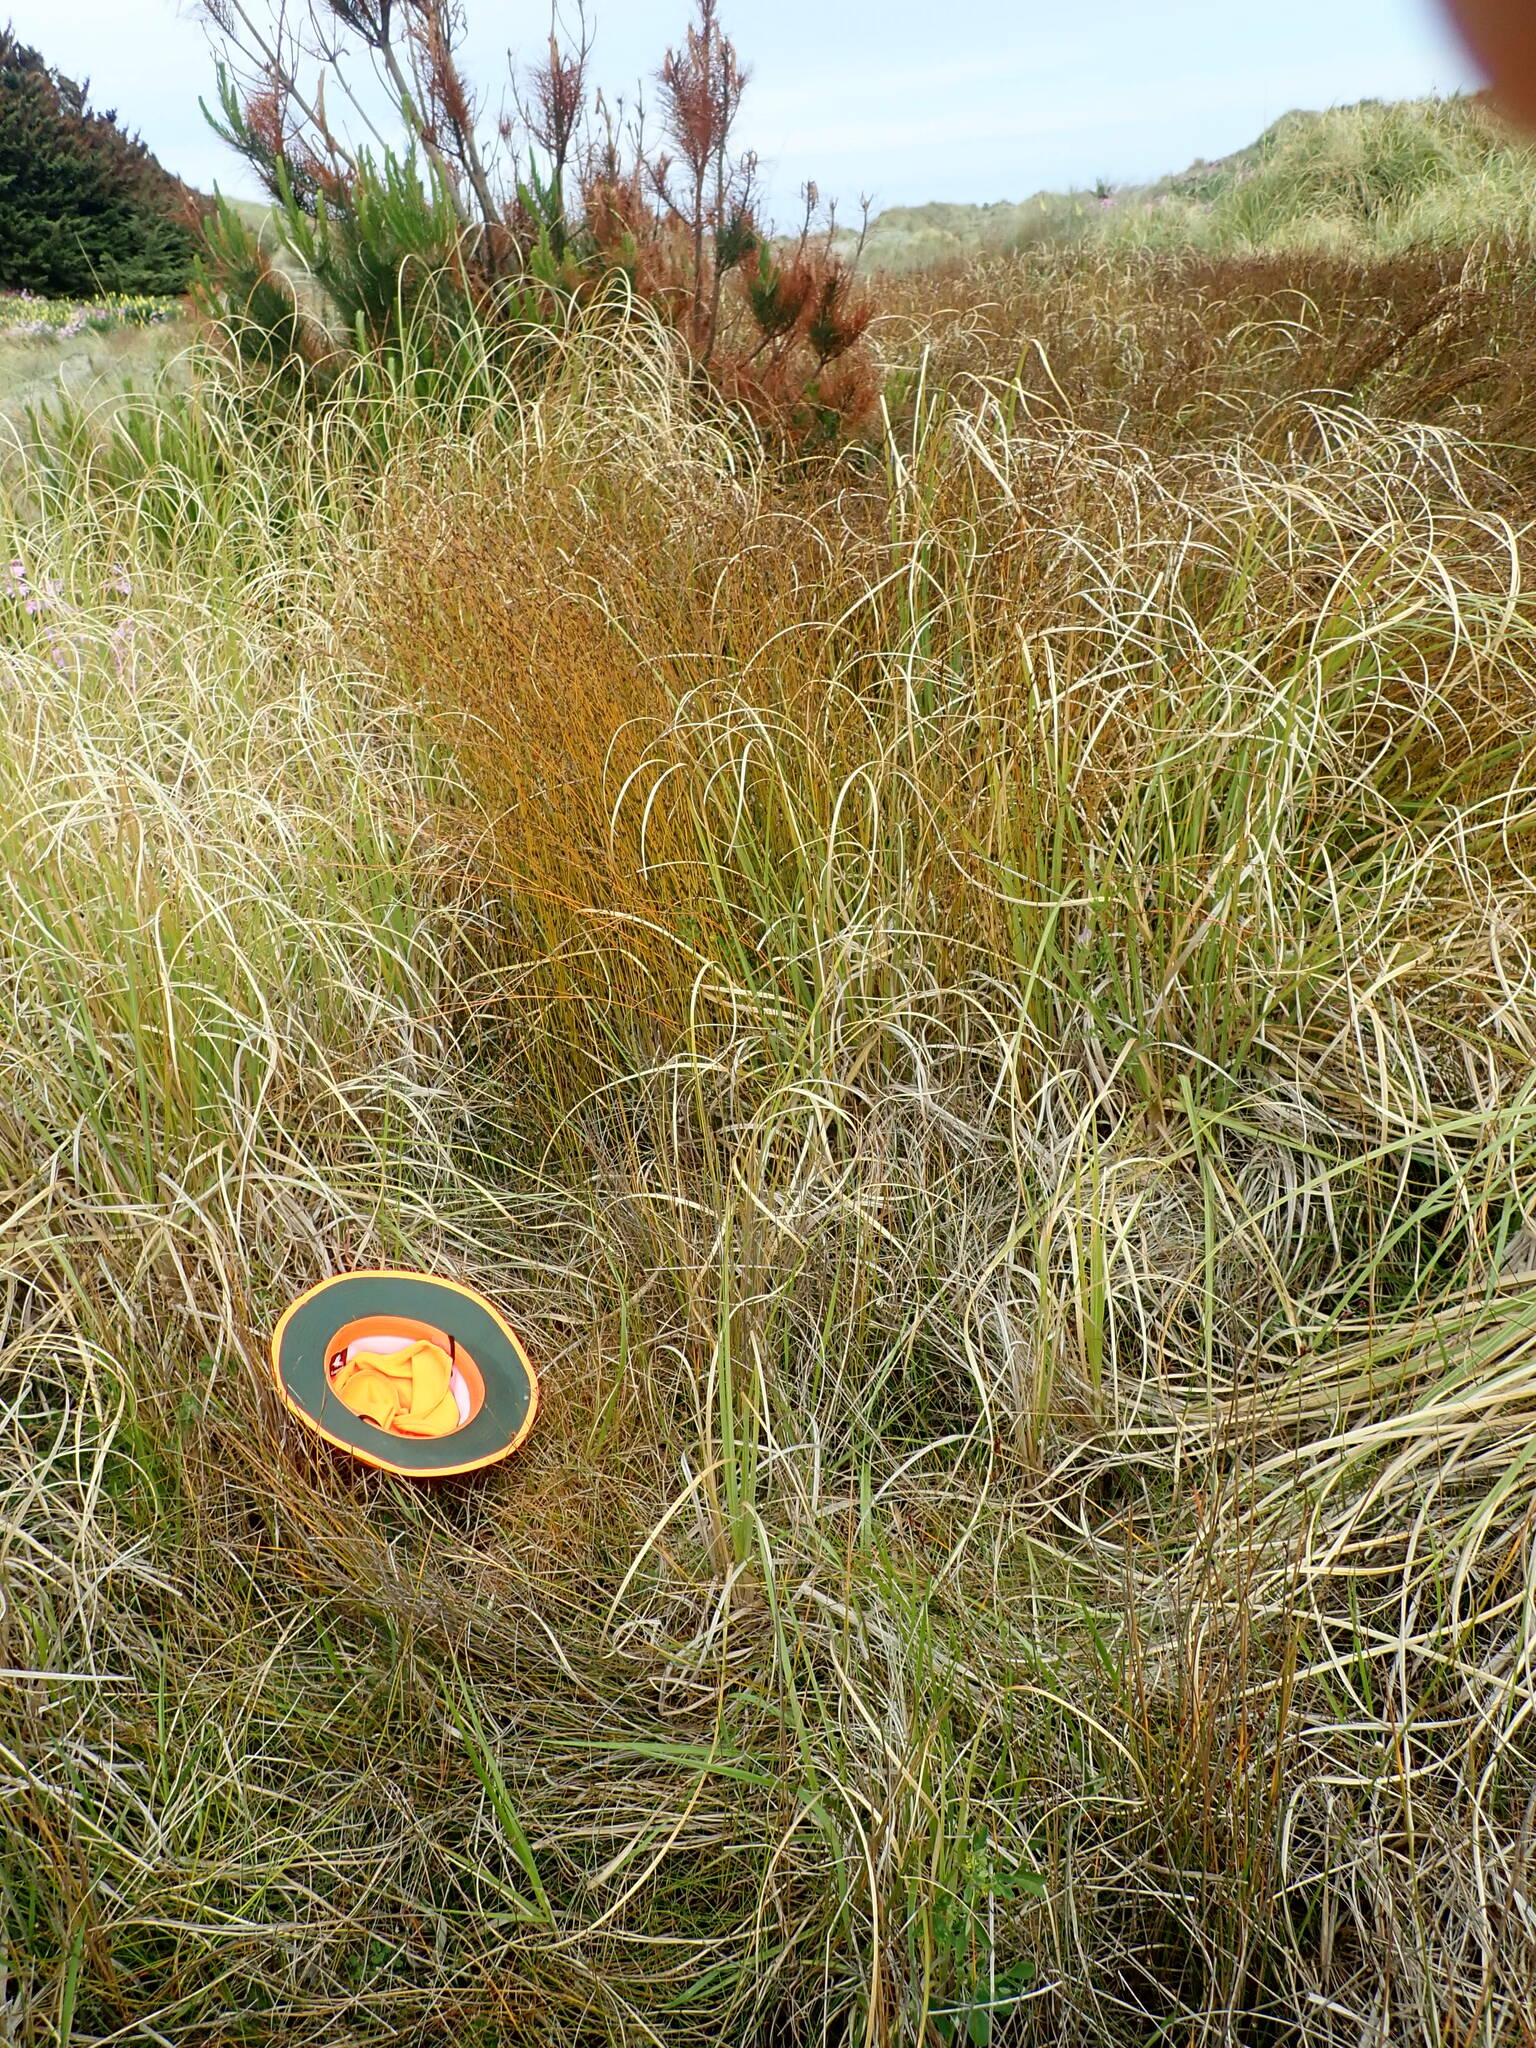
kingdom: Plantae
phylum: Tracheophyta
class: Liliopsida
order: Poales
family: Juncaceae
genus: Juncus
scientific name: Juncus caespiticius
